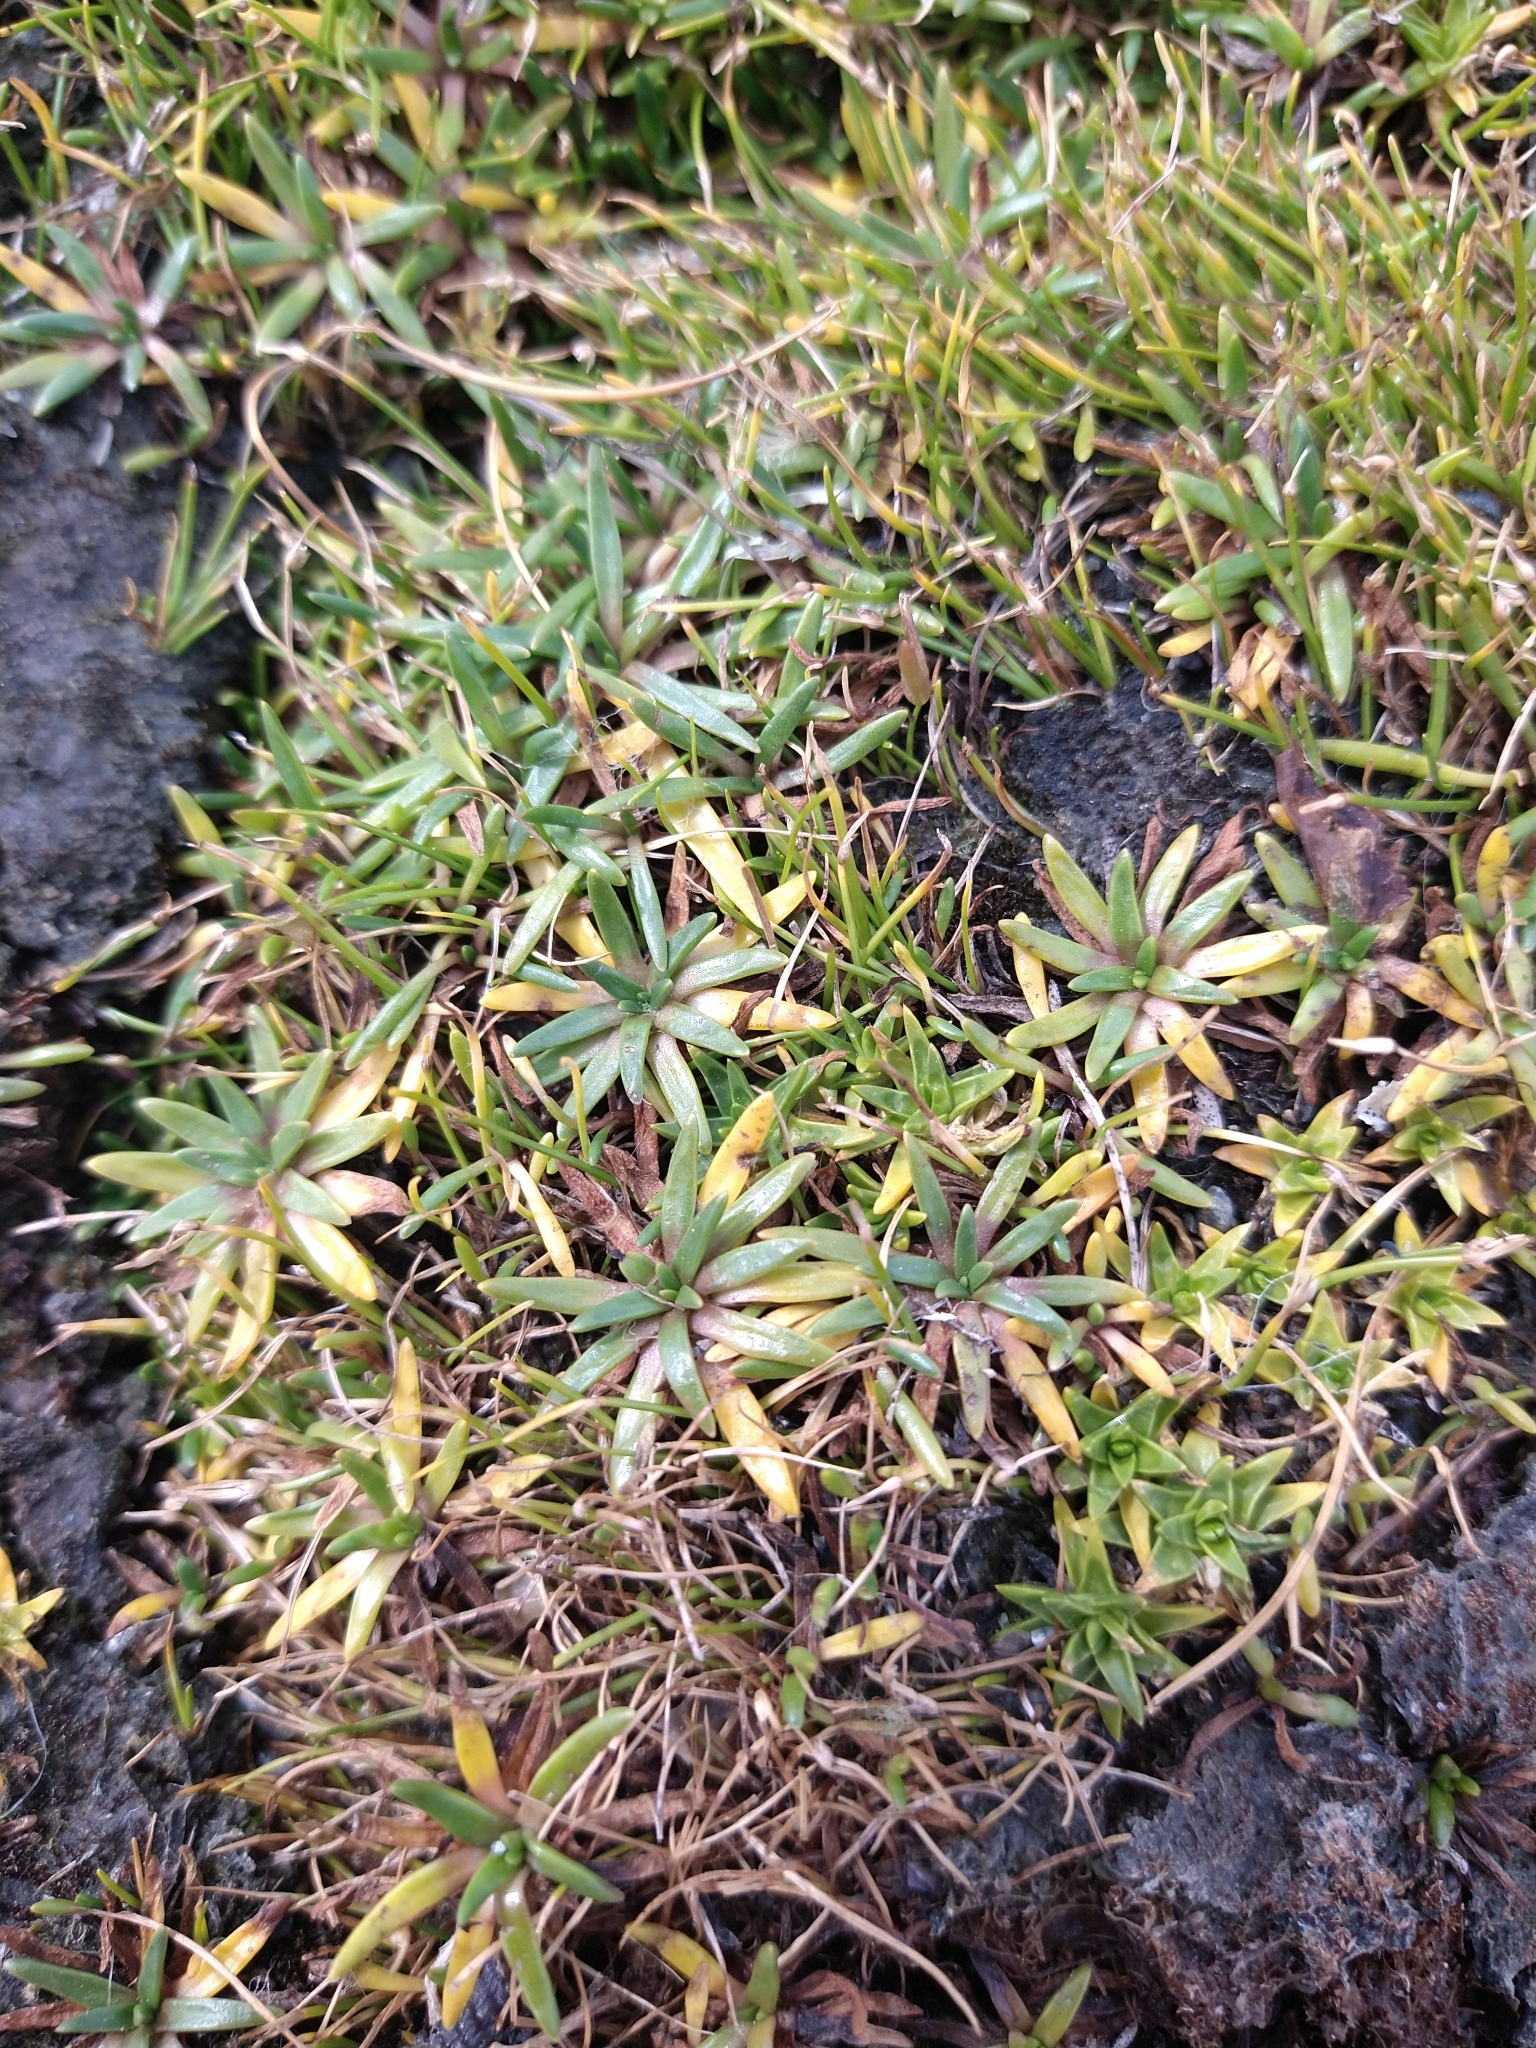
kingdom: Plantae
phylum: Tracheophyta
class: Magnoliopsida
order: Lamiales
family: Plantaginaceae
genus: Plantago
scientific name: Plantago barbata
